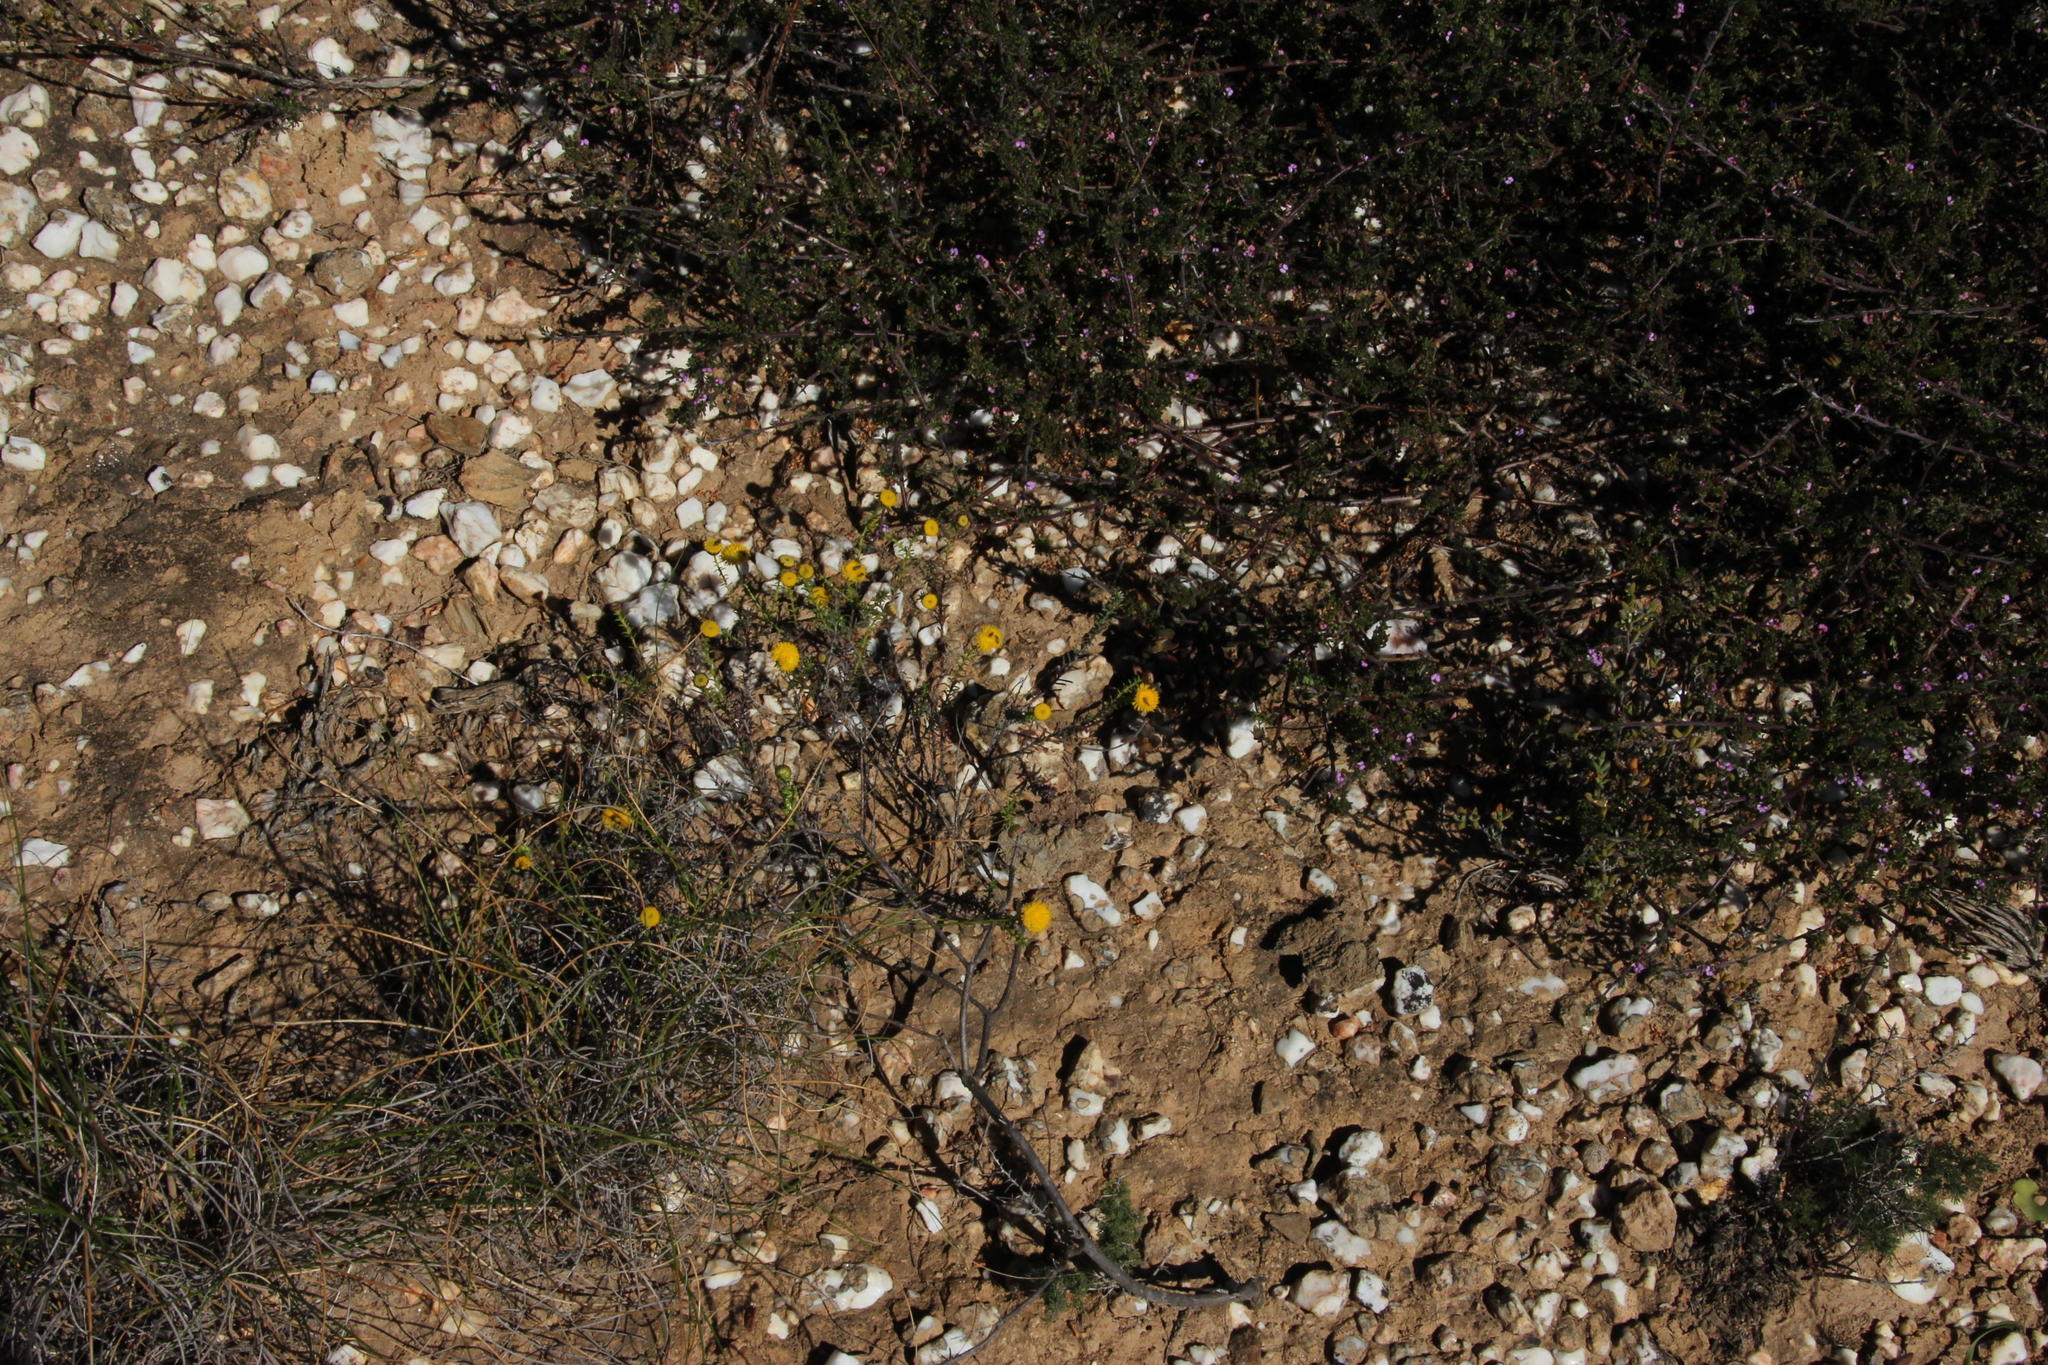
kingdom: Plantae
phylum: Tracheophyta
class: Magnoliopsida
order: Asterales
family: Asteraceae
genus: Chrysocoma
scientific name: Chrysocoma ciliata
